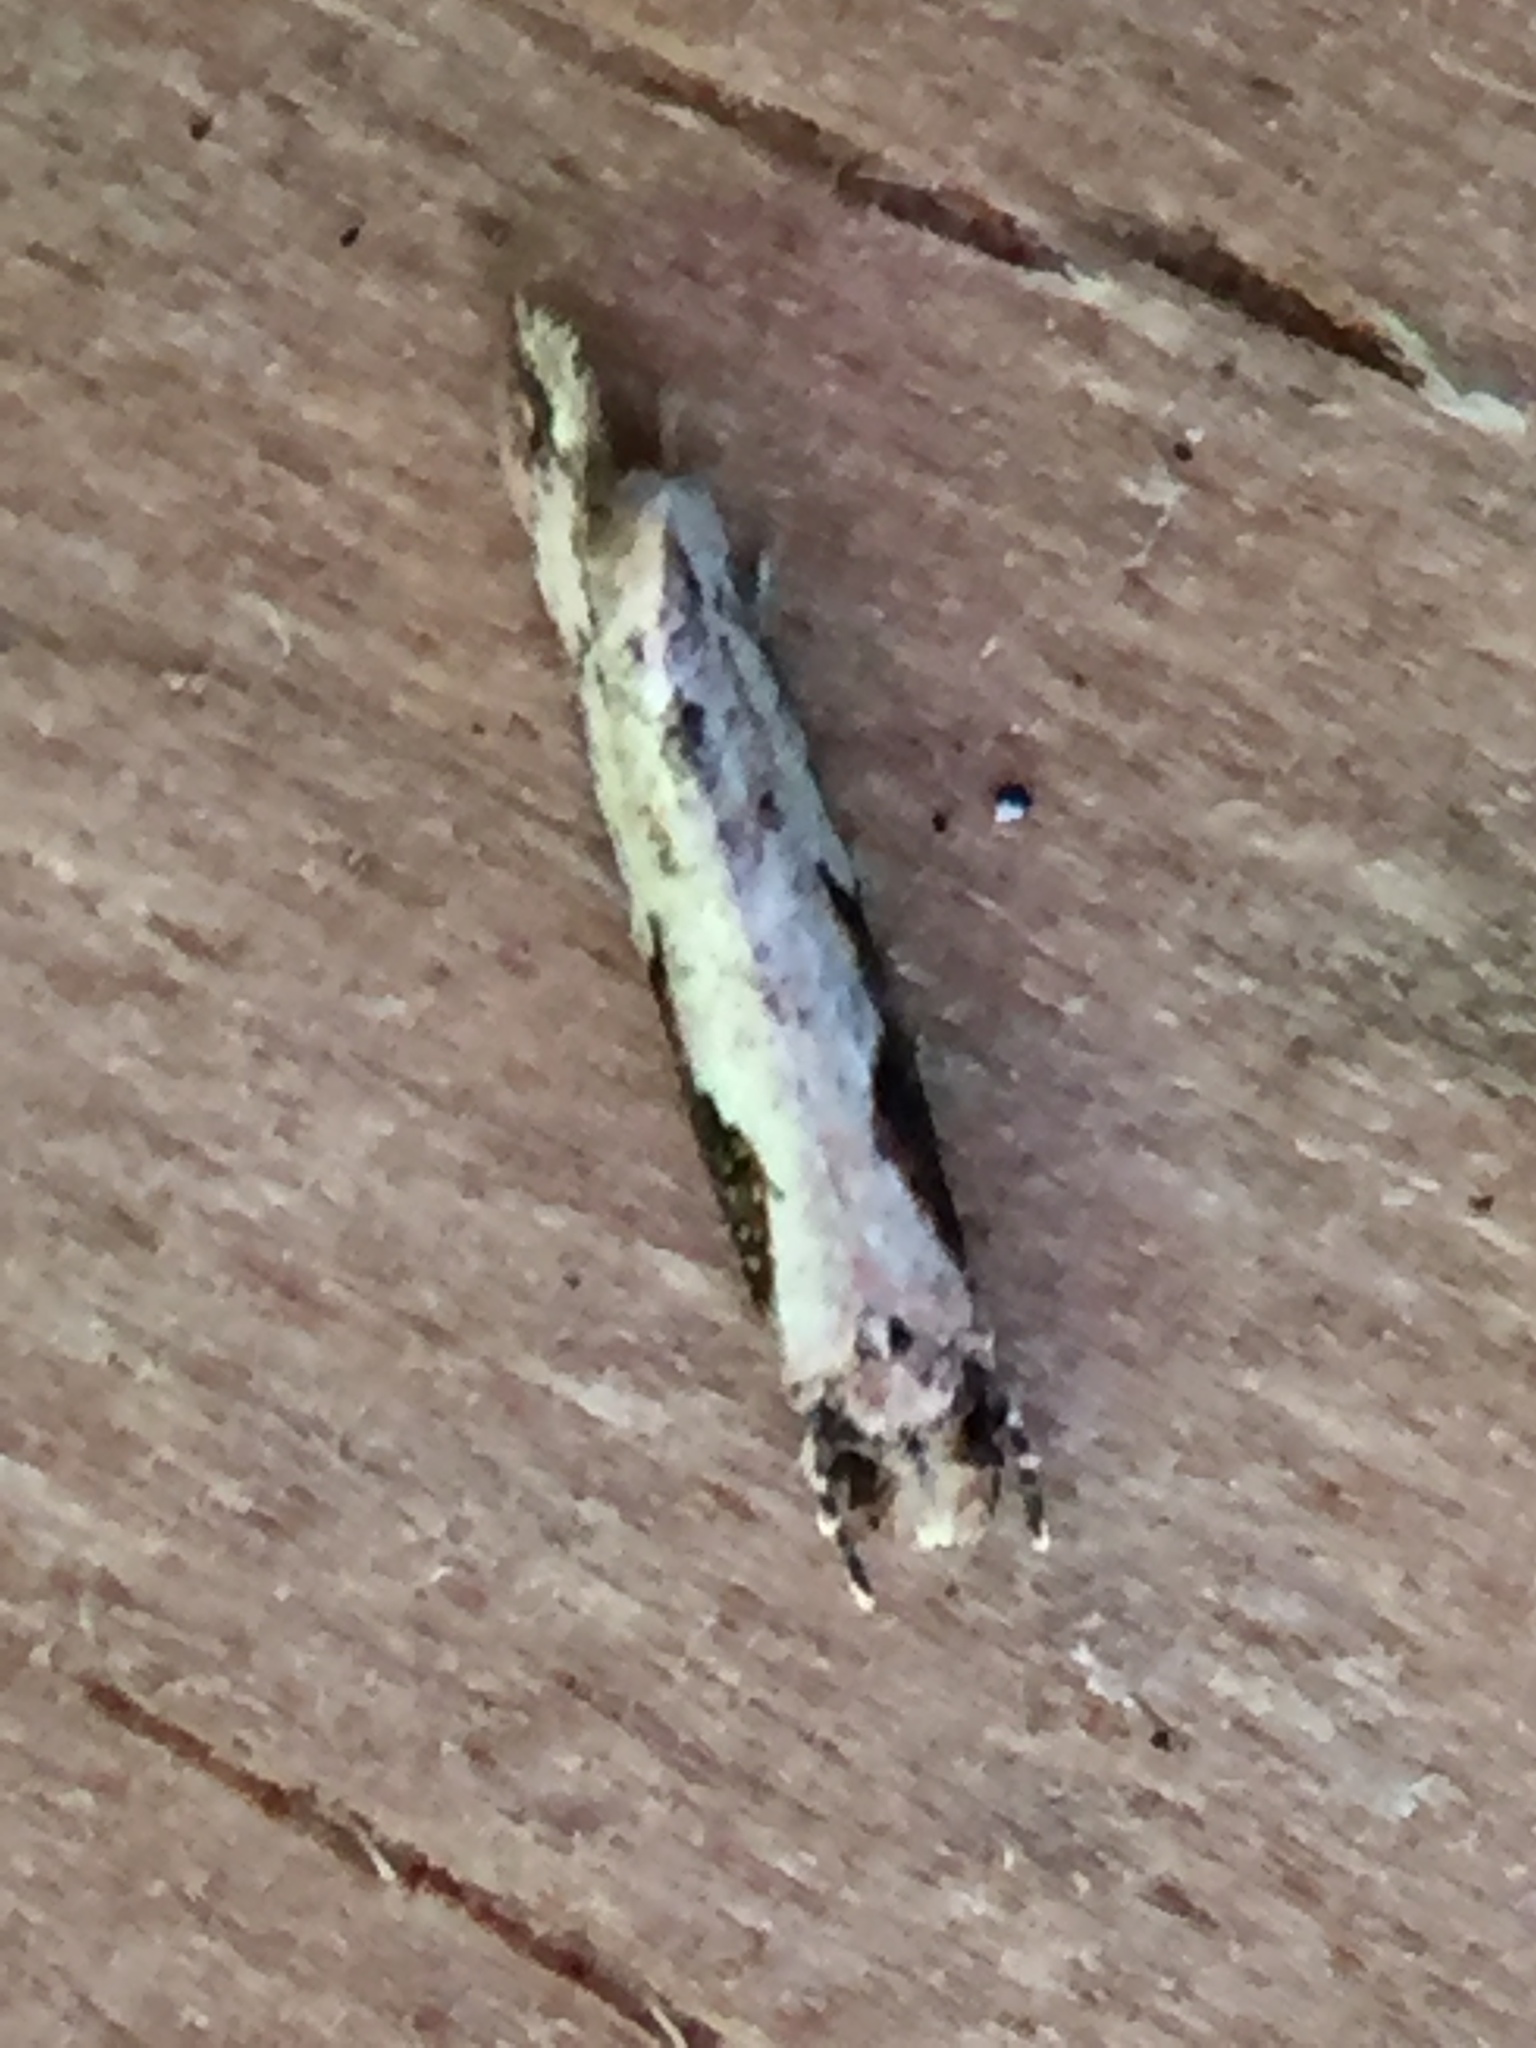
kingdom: Animalia
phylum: Arthropoda
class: Insecta
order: Lepidoptera
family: Tineidae
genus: Crypsitricha
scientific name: Crypsitricha pharotoma
